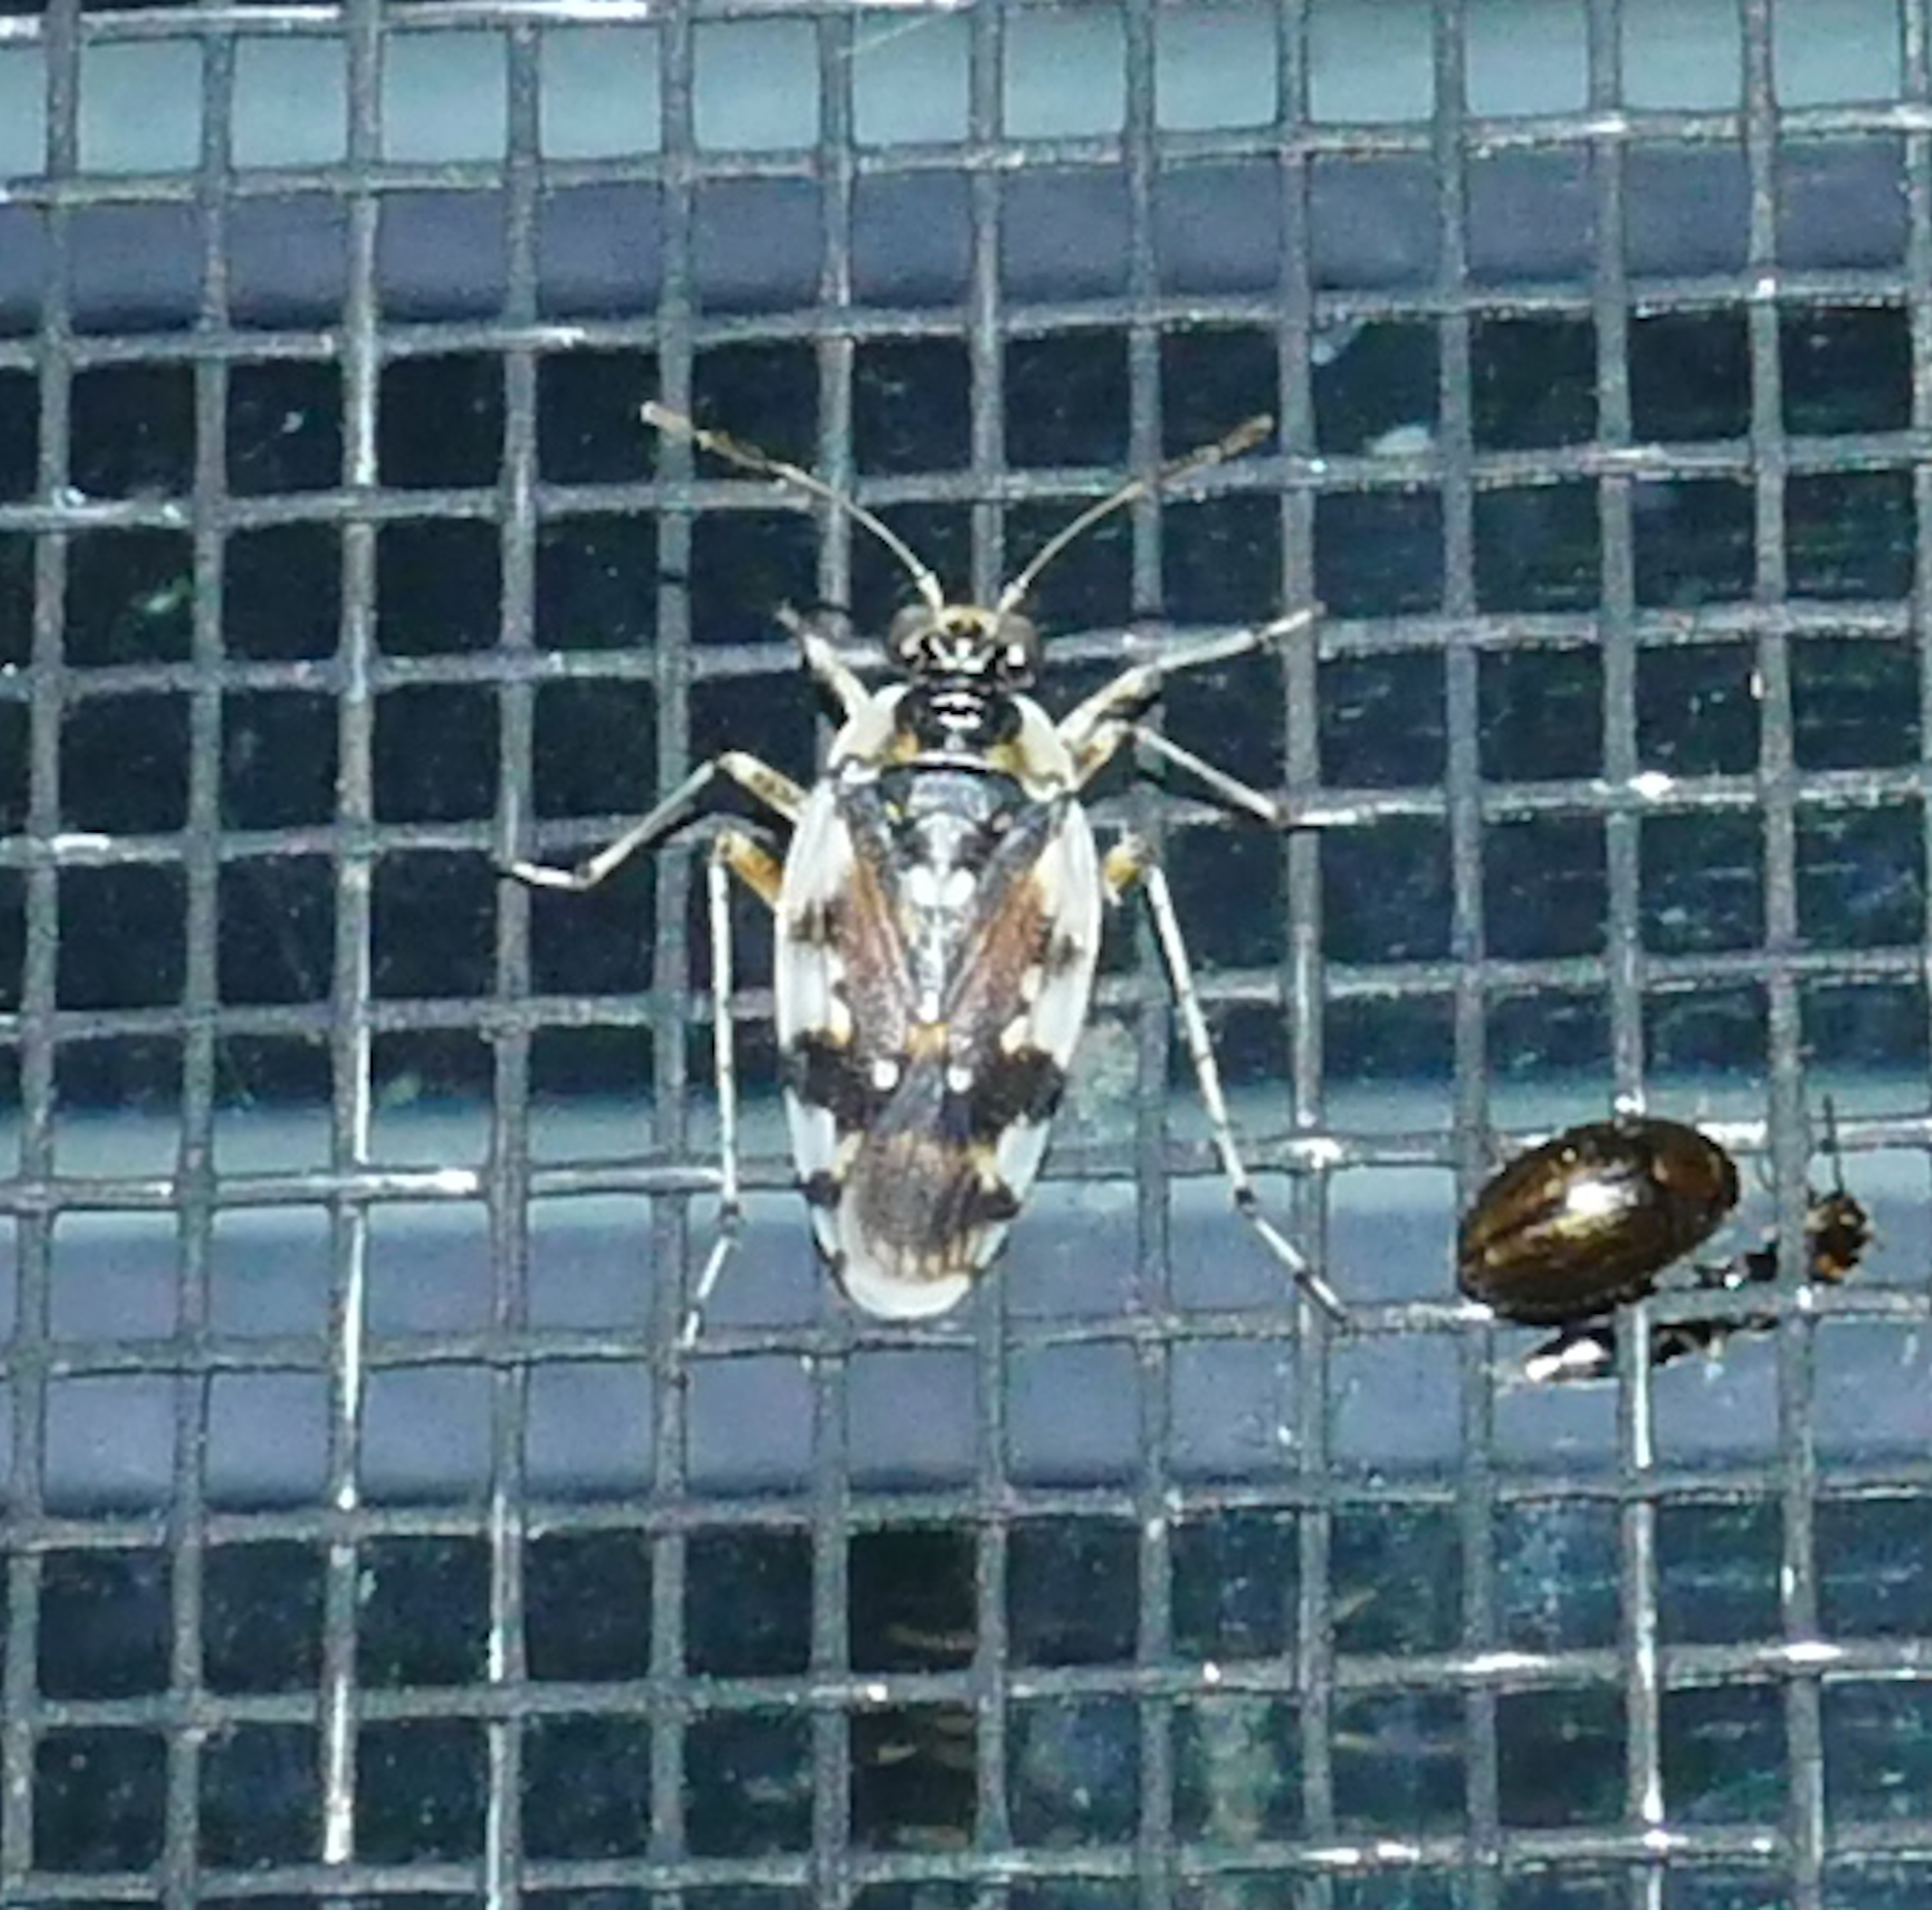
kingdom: Animalia
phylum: Arthropoda
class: Insecta
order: Hemiptera
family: Saldidae
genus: Pentacora
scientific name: Pentacora signoreti
